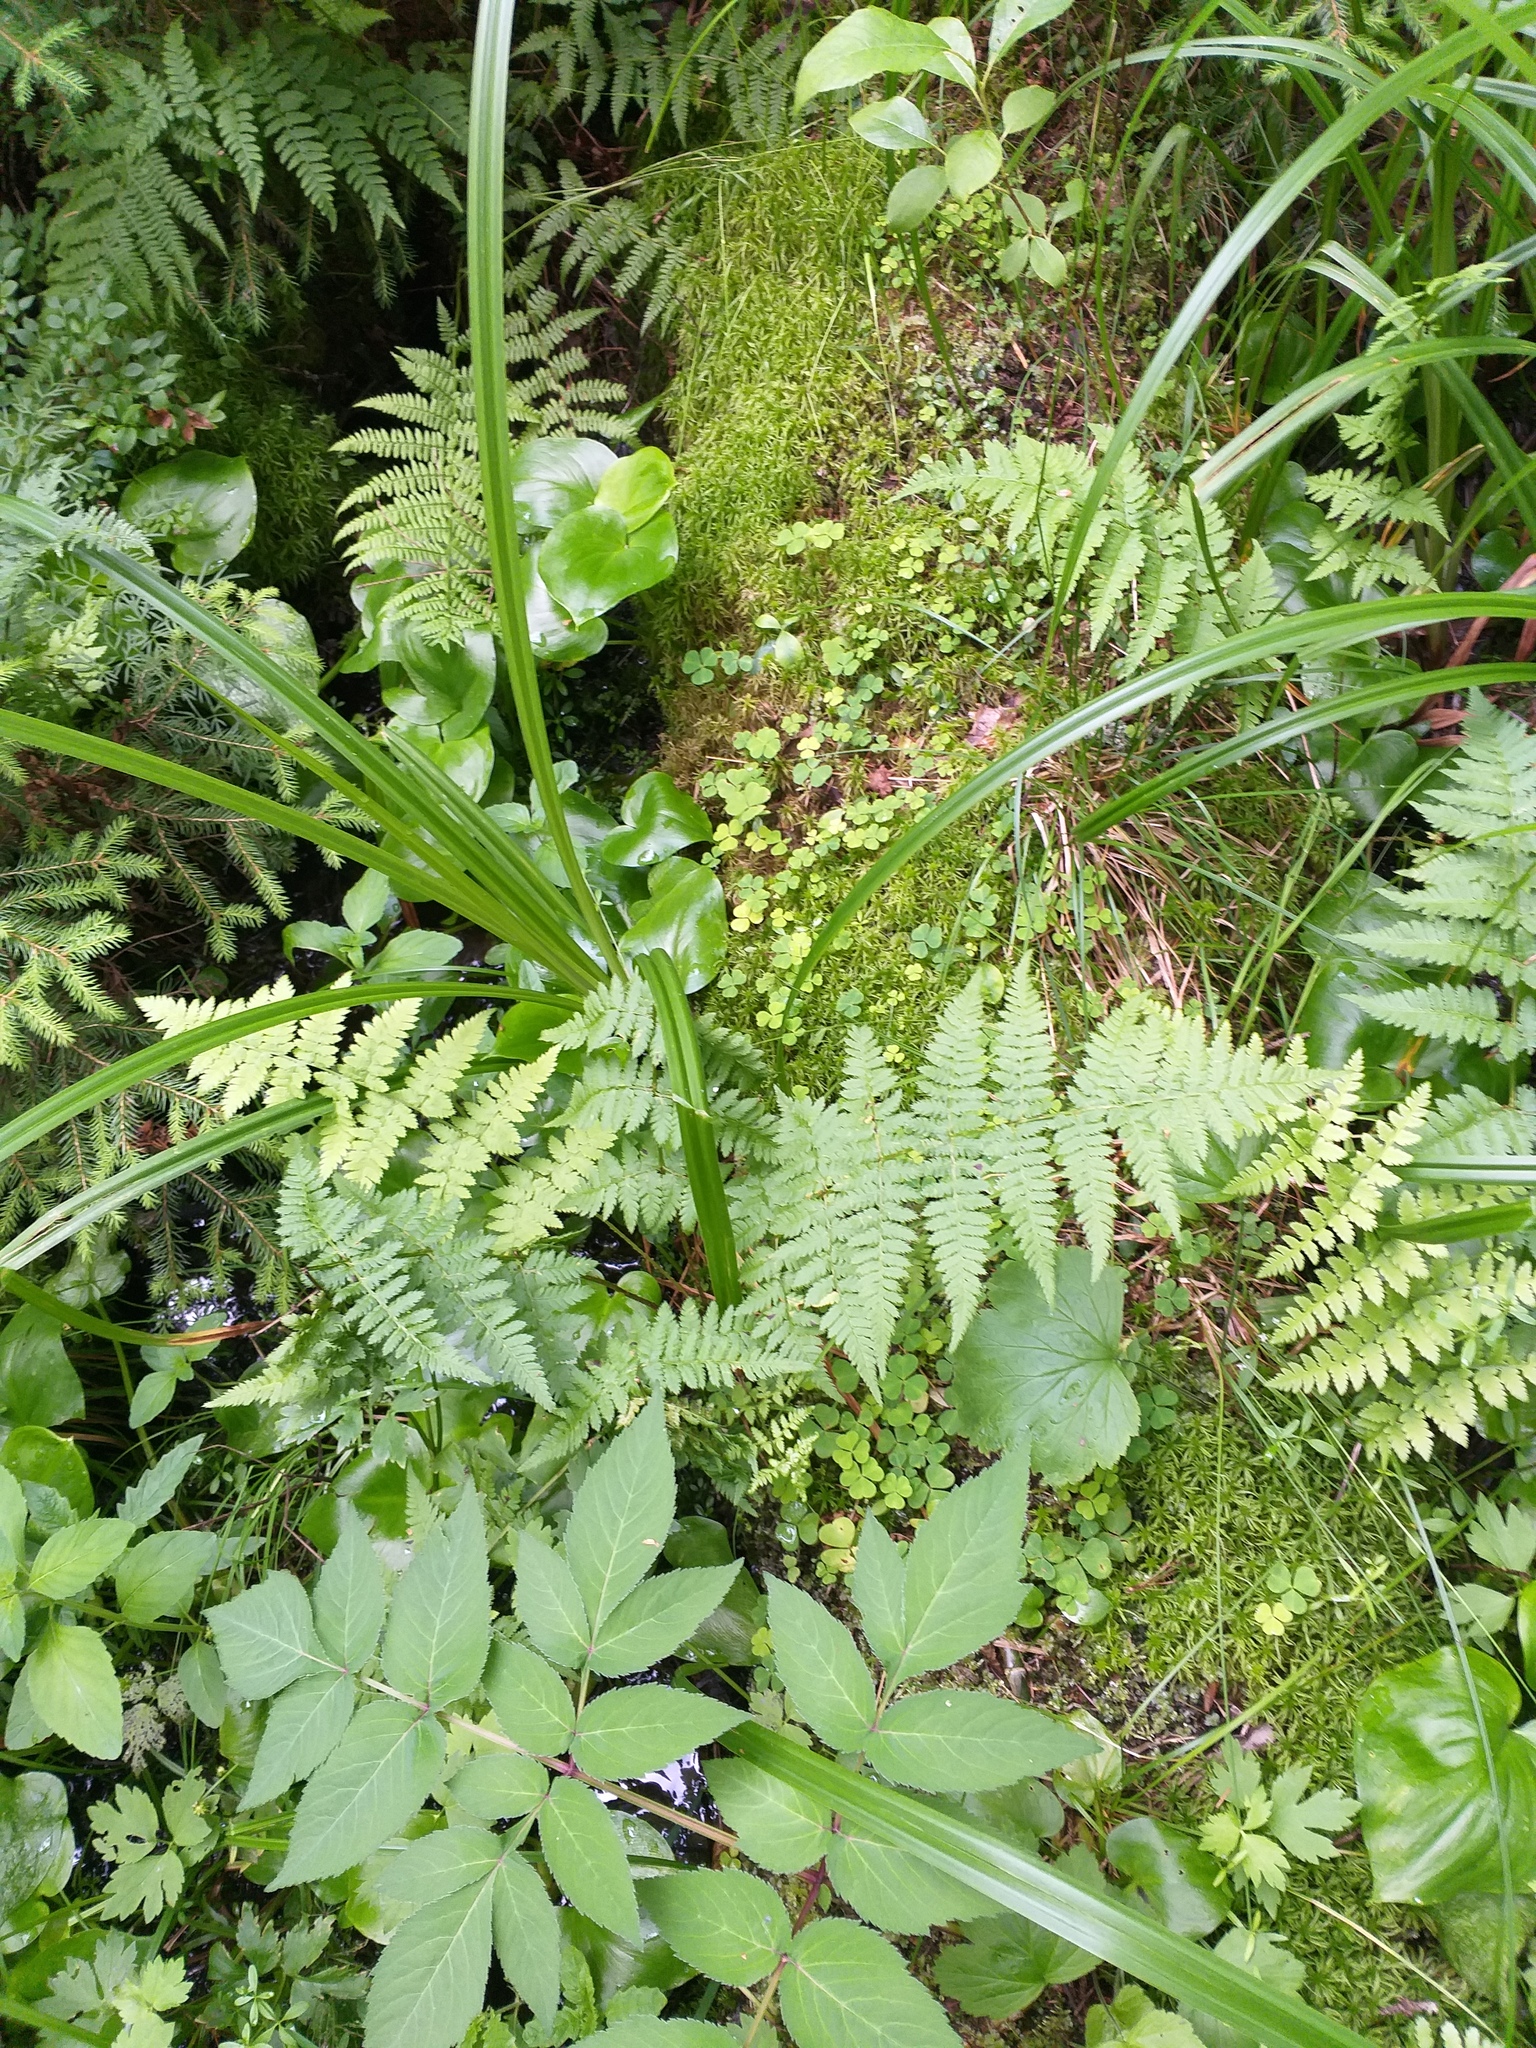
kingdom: Plantae
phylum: Tracheophyta
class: Polypodiopsida
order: Polypodiales
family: Dryopteridaceae
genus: Dryopteris
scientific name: Dryopteris carthusiana
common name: Narrow buckler-fern
